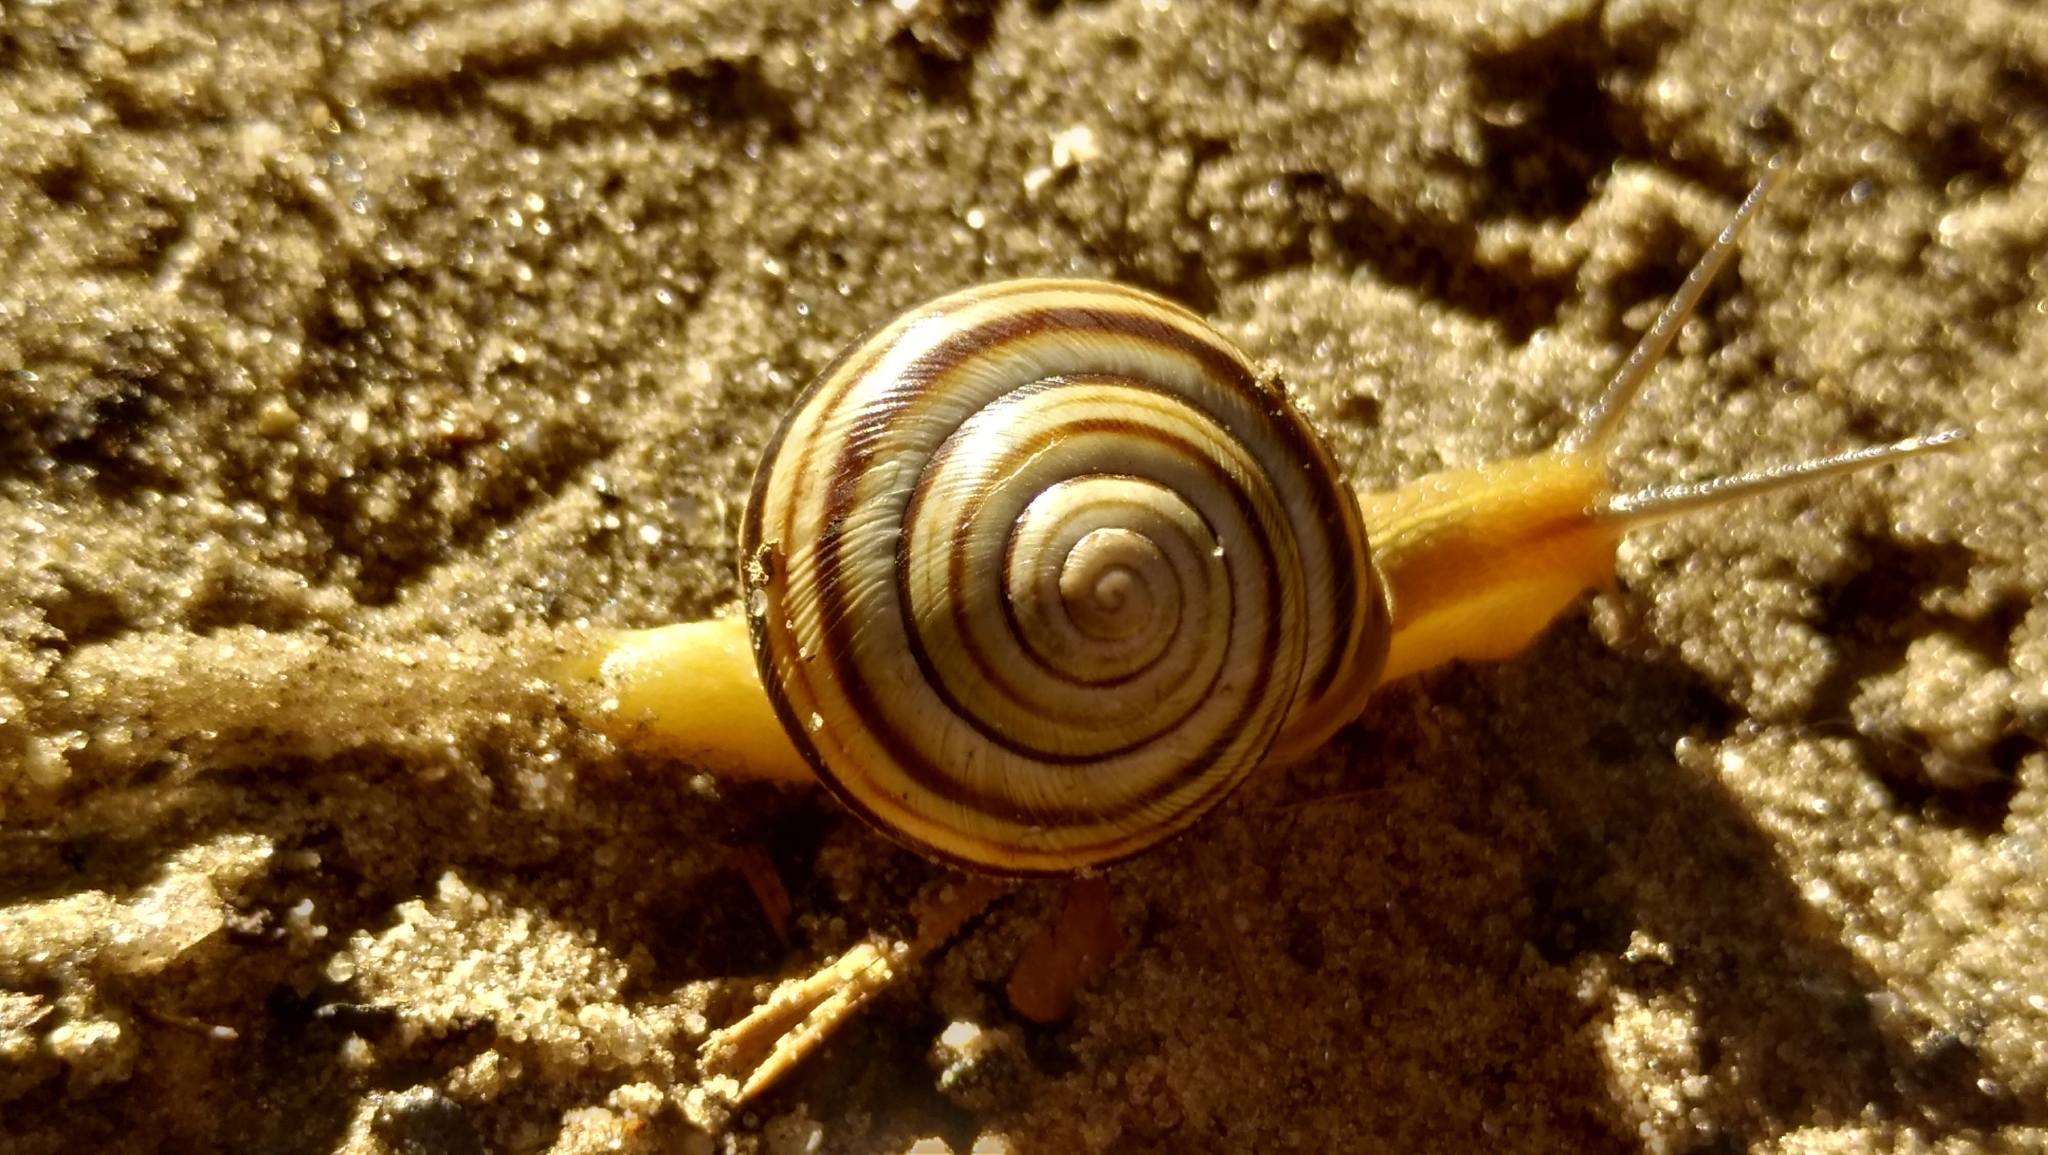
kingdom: Animalia
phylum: Mollusca
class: Gastropoda
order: Stylommatophora
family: Helicidae
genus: Caucasotachea
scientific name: Caucasotachea vindobonensis
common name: European helicid land snail
